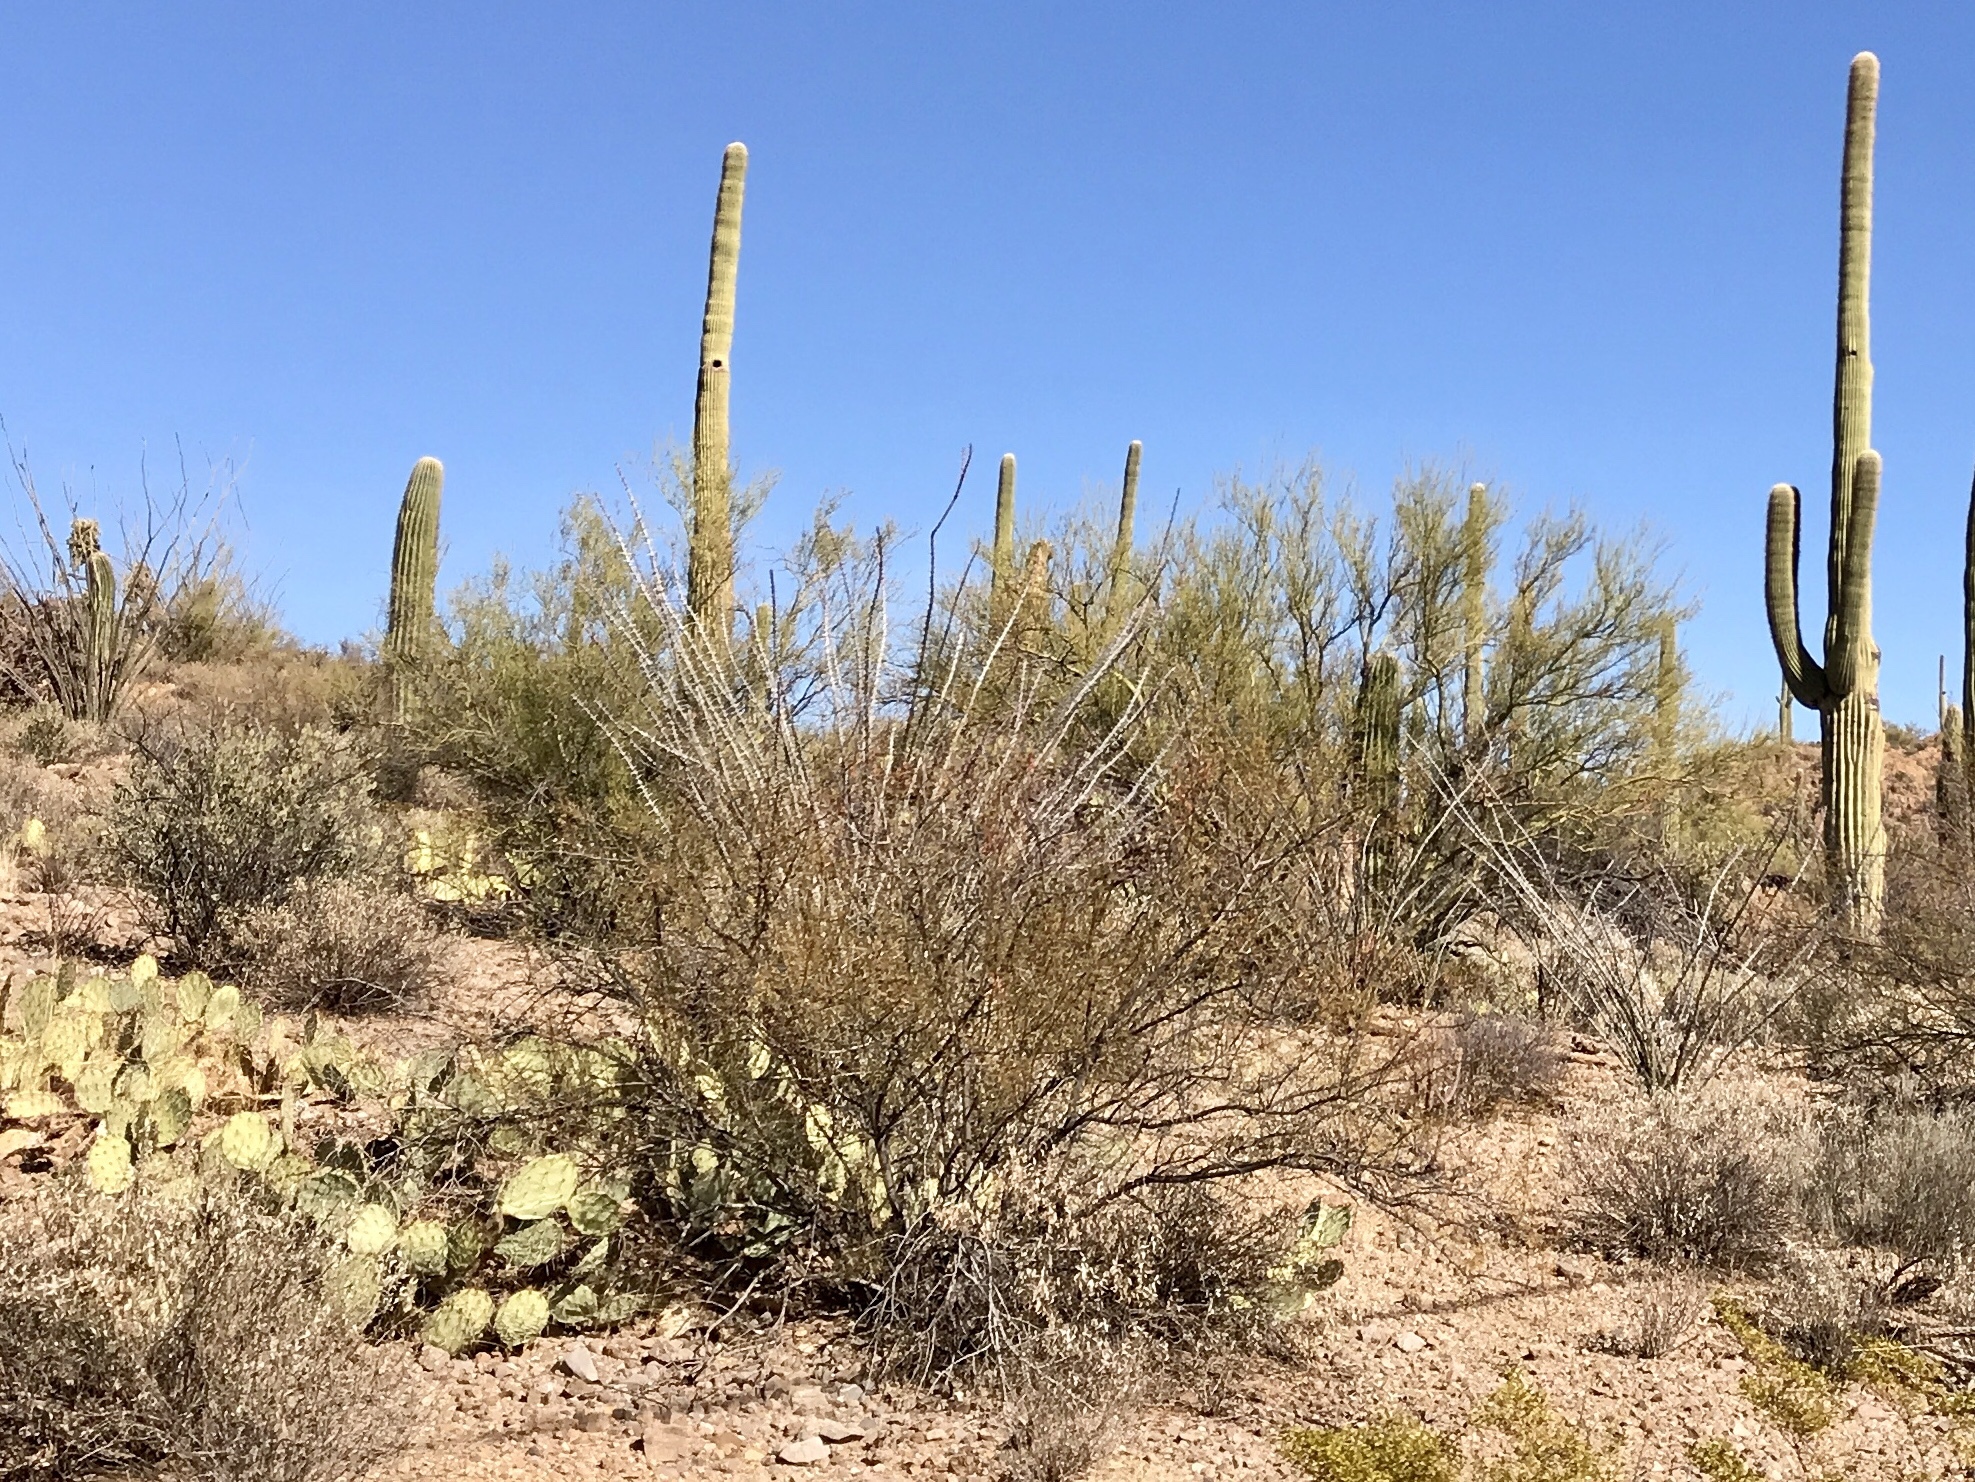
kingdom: Plantae
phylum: Tracheophyta
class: Magnoliopsida
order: Ericales
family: Fouquieriaceae
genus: Fouquieria
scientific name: Fouquieria splendens
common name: Vine-cactus
